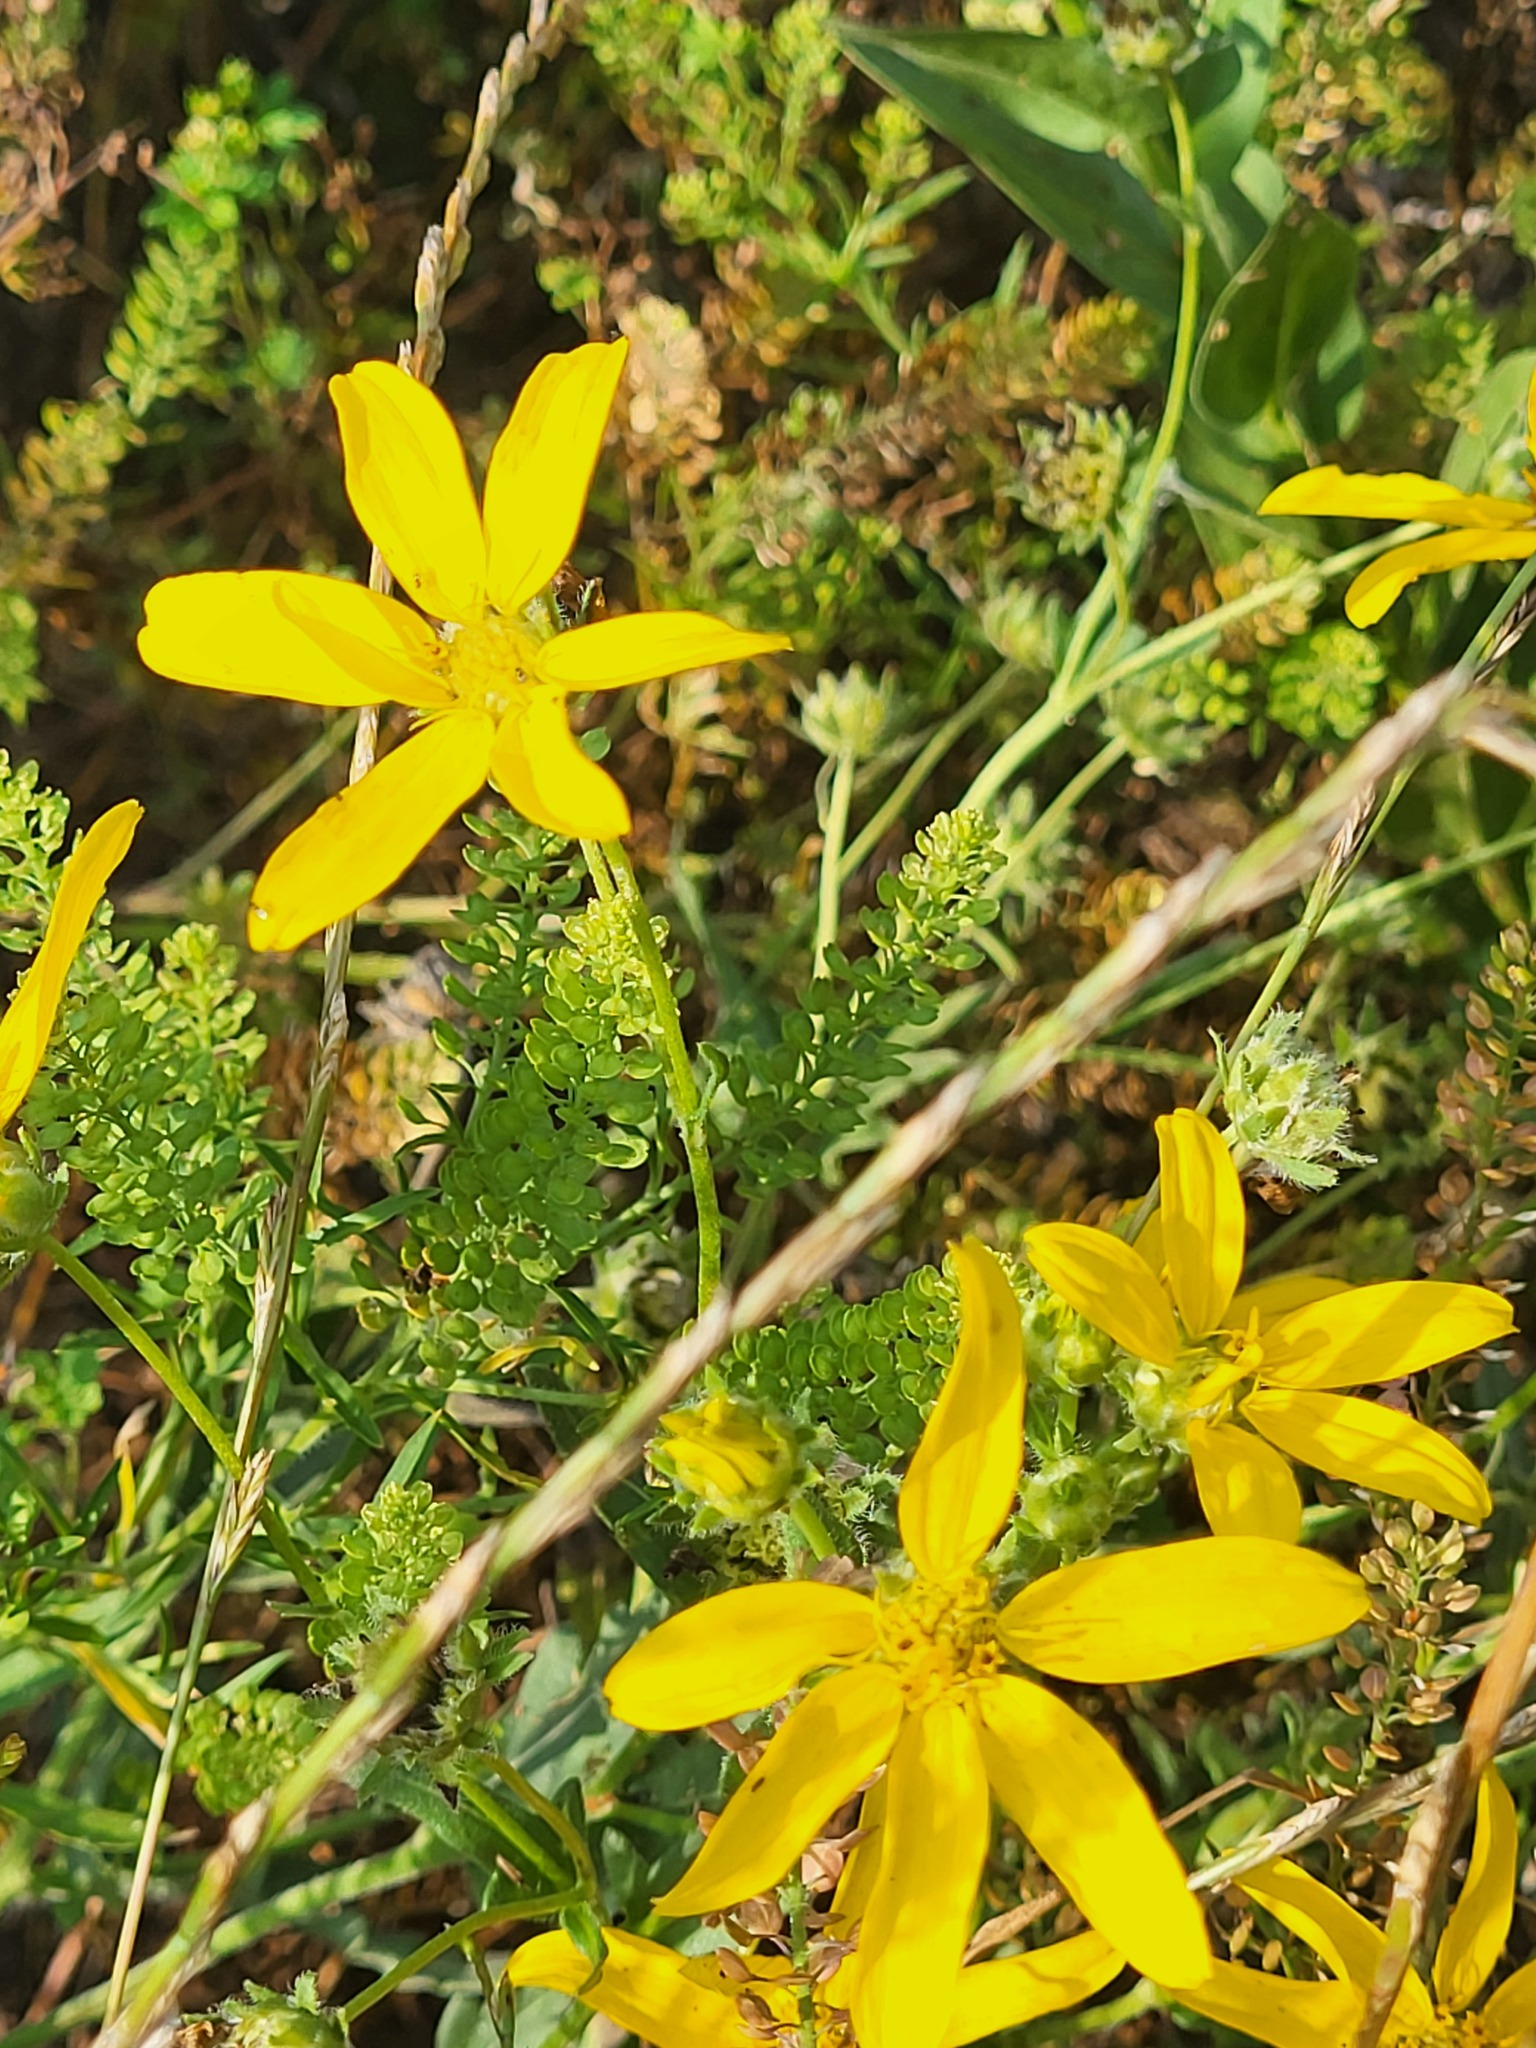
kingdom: Plantae
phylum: Tracheophyta
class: Magnoliopsida
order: Asterales
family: Asteraceae
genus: Engelmannia
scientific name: Engelmannia peristenia
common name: Engelmann's daisy
